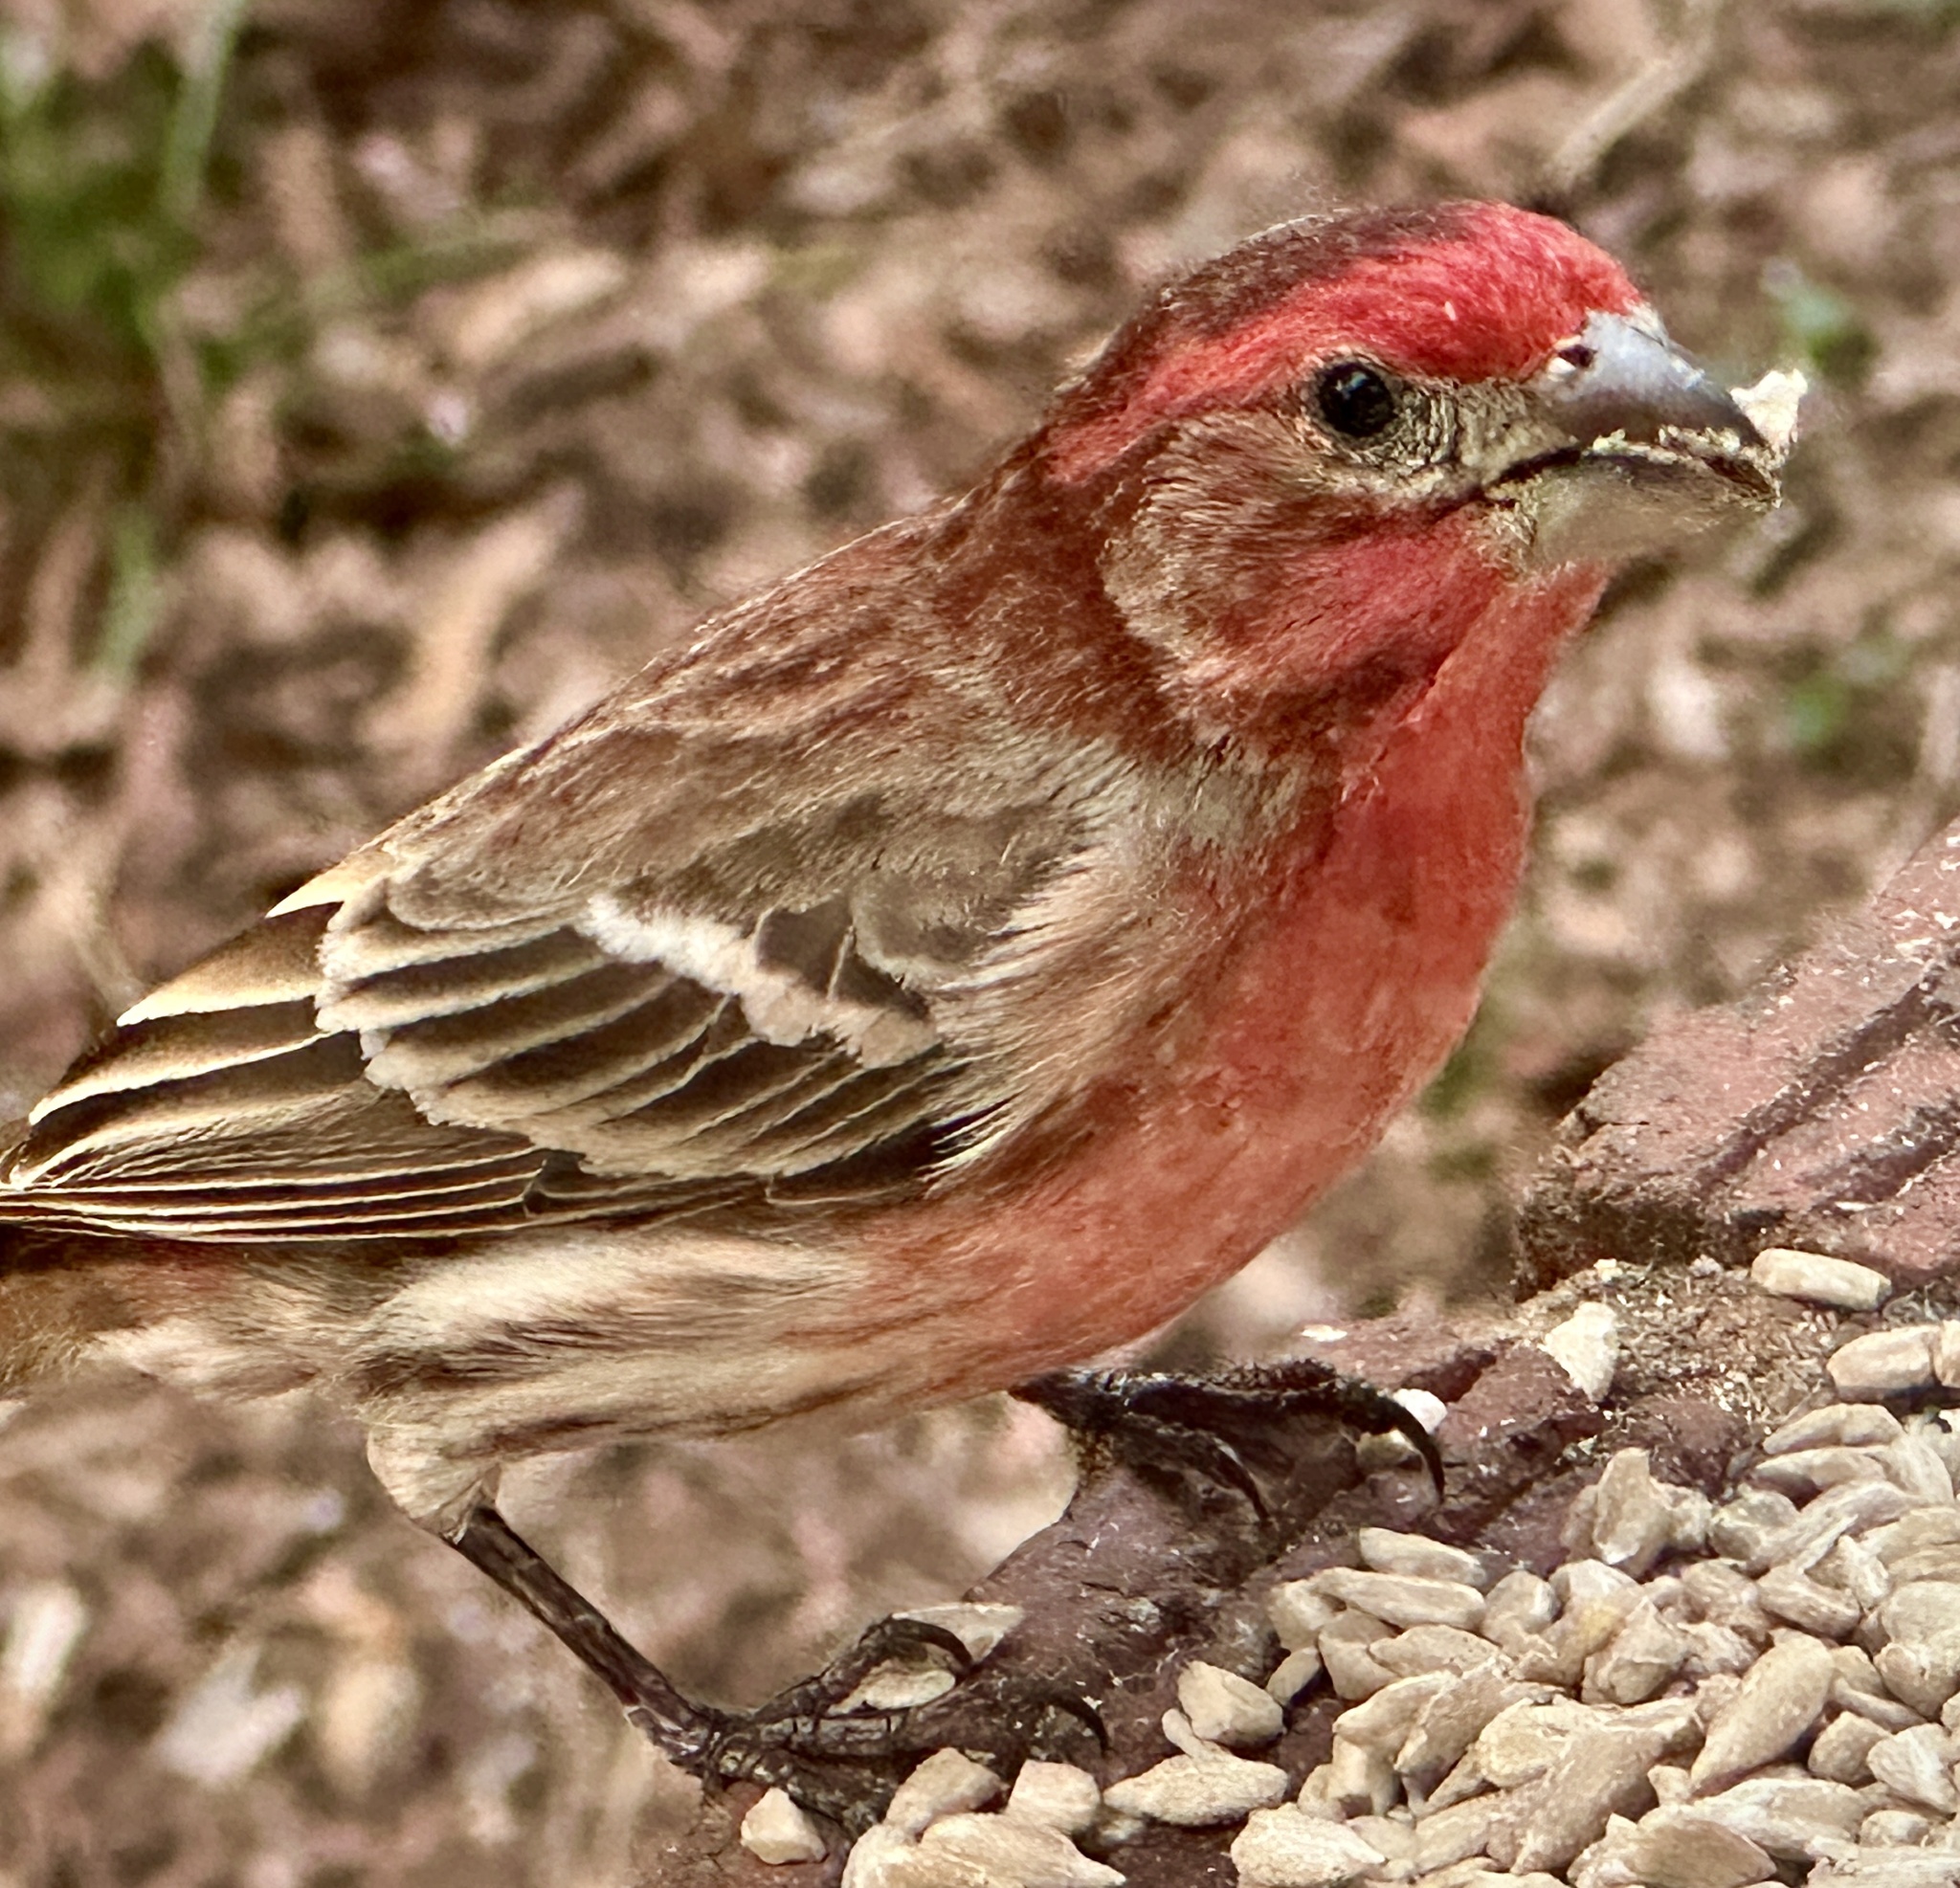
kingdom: Animalia
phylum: Chordata
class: Aves
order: Passeriformes
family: Fringillidae
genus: Haemorhous
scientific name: Haemorhous mexicanus
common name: House finch
